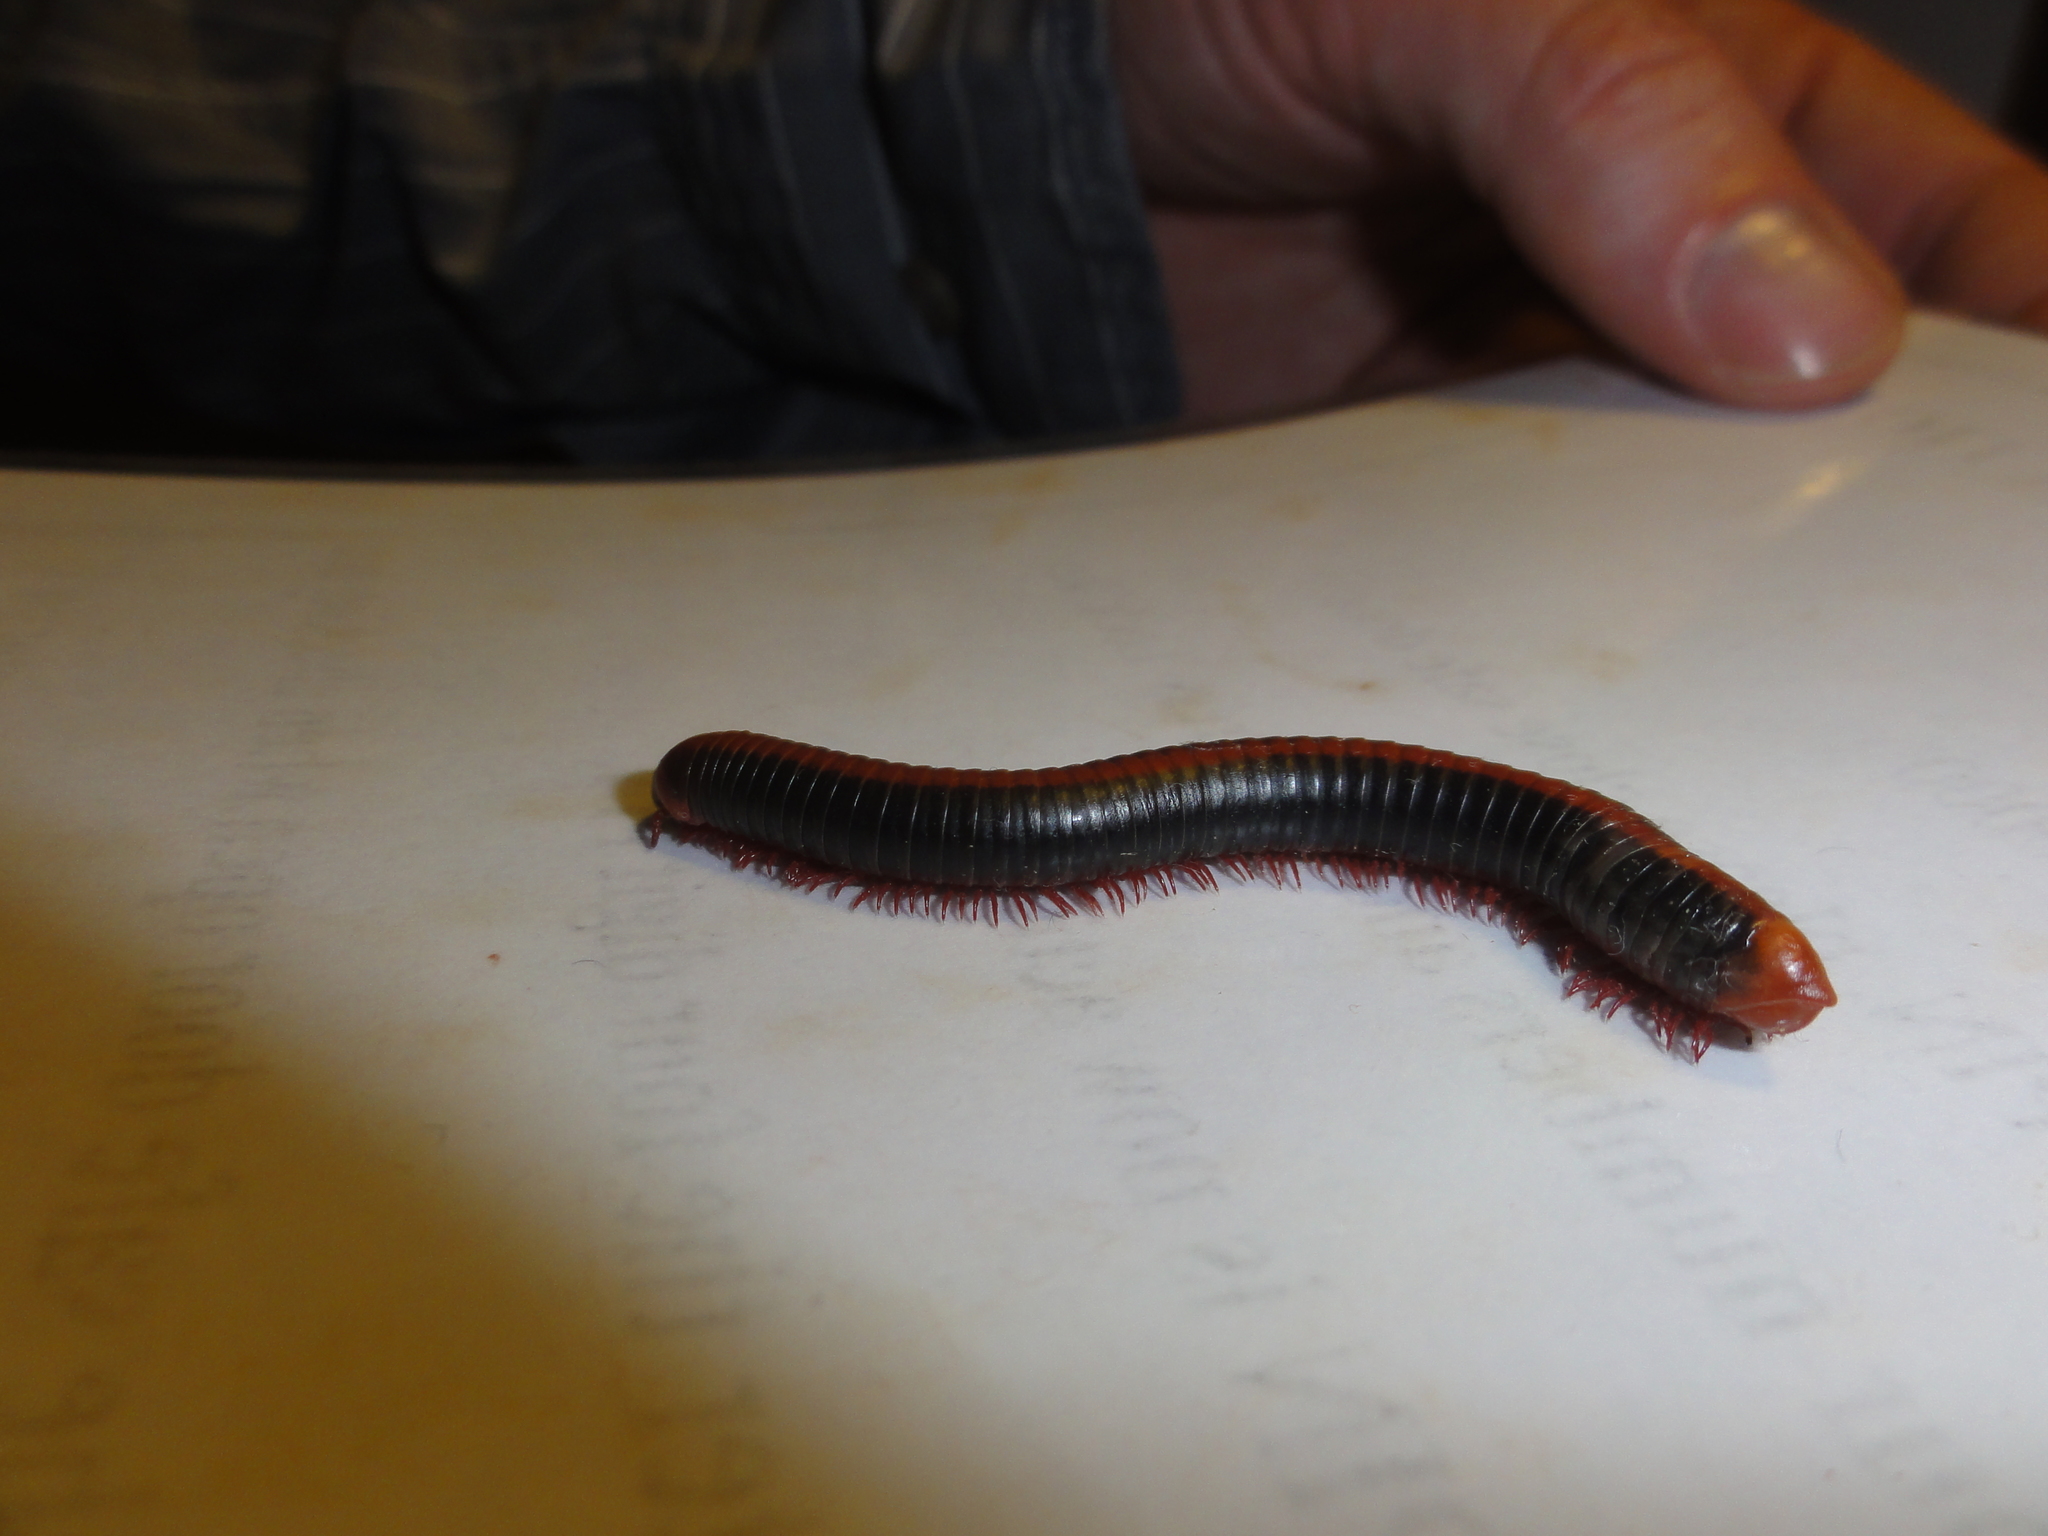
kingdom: Animalia
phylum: Arthropoda
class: Diplopoda
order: Spirobolida
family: Pachybolidae
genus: Xenobolus
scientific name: Xenobolus carnifex
